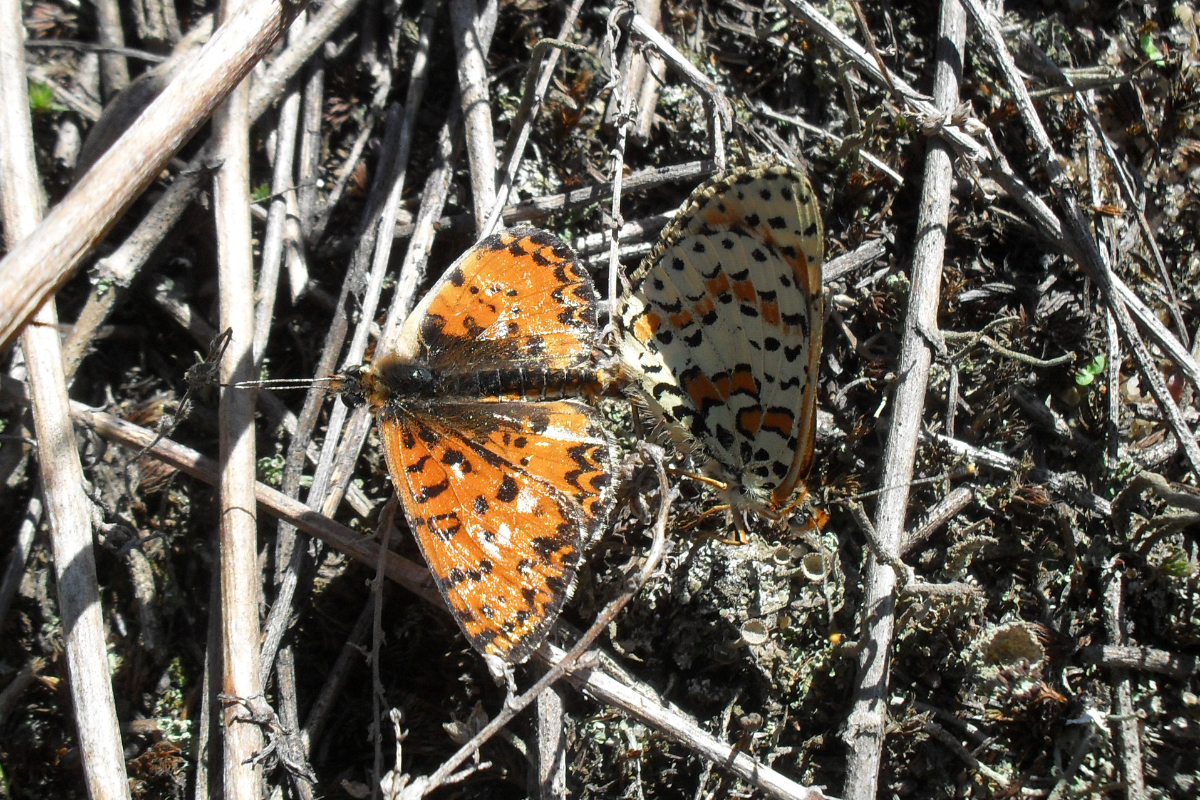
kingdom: Animalia
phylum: Arthropoda
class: Insecta
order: Lepidoptera
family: Nymphalidae
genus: Melitaea
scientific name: Melitaea didyma
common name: Spotted fritillary
